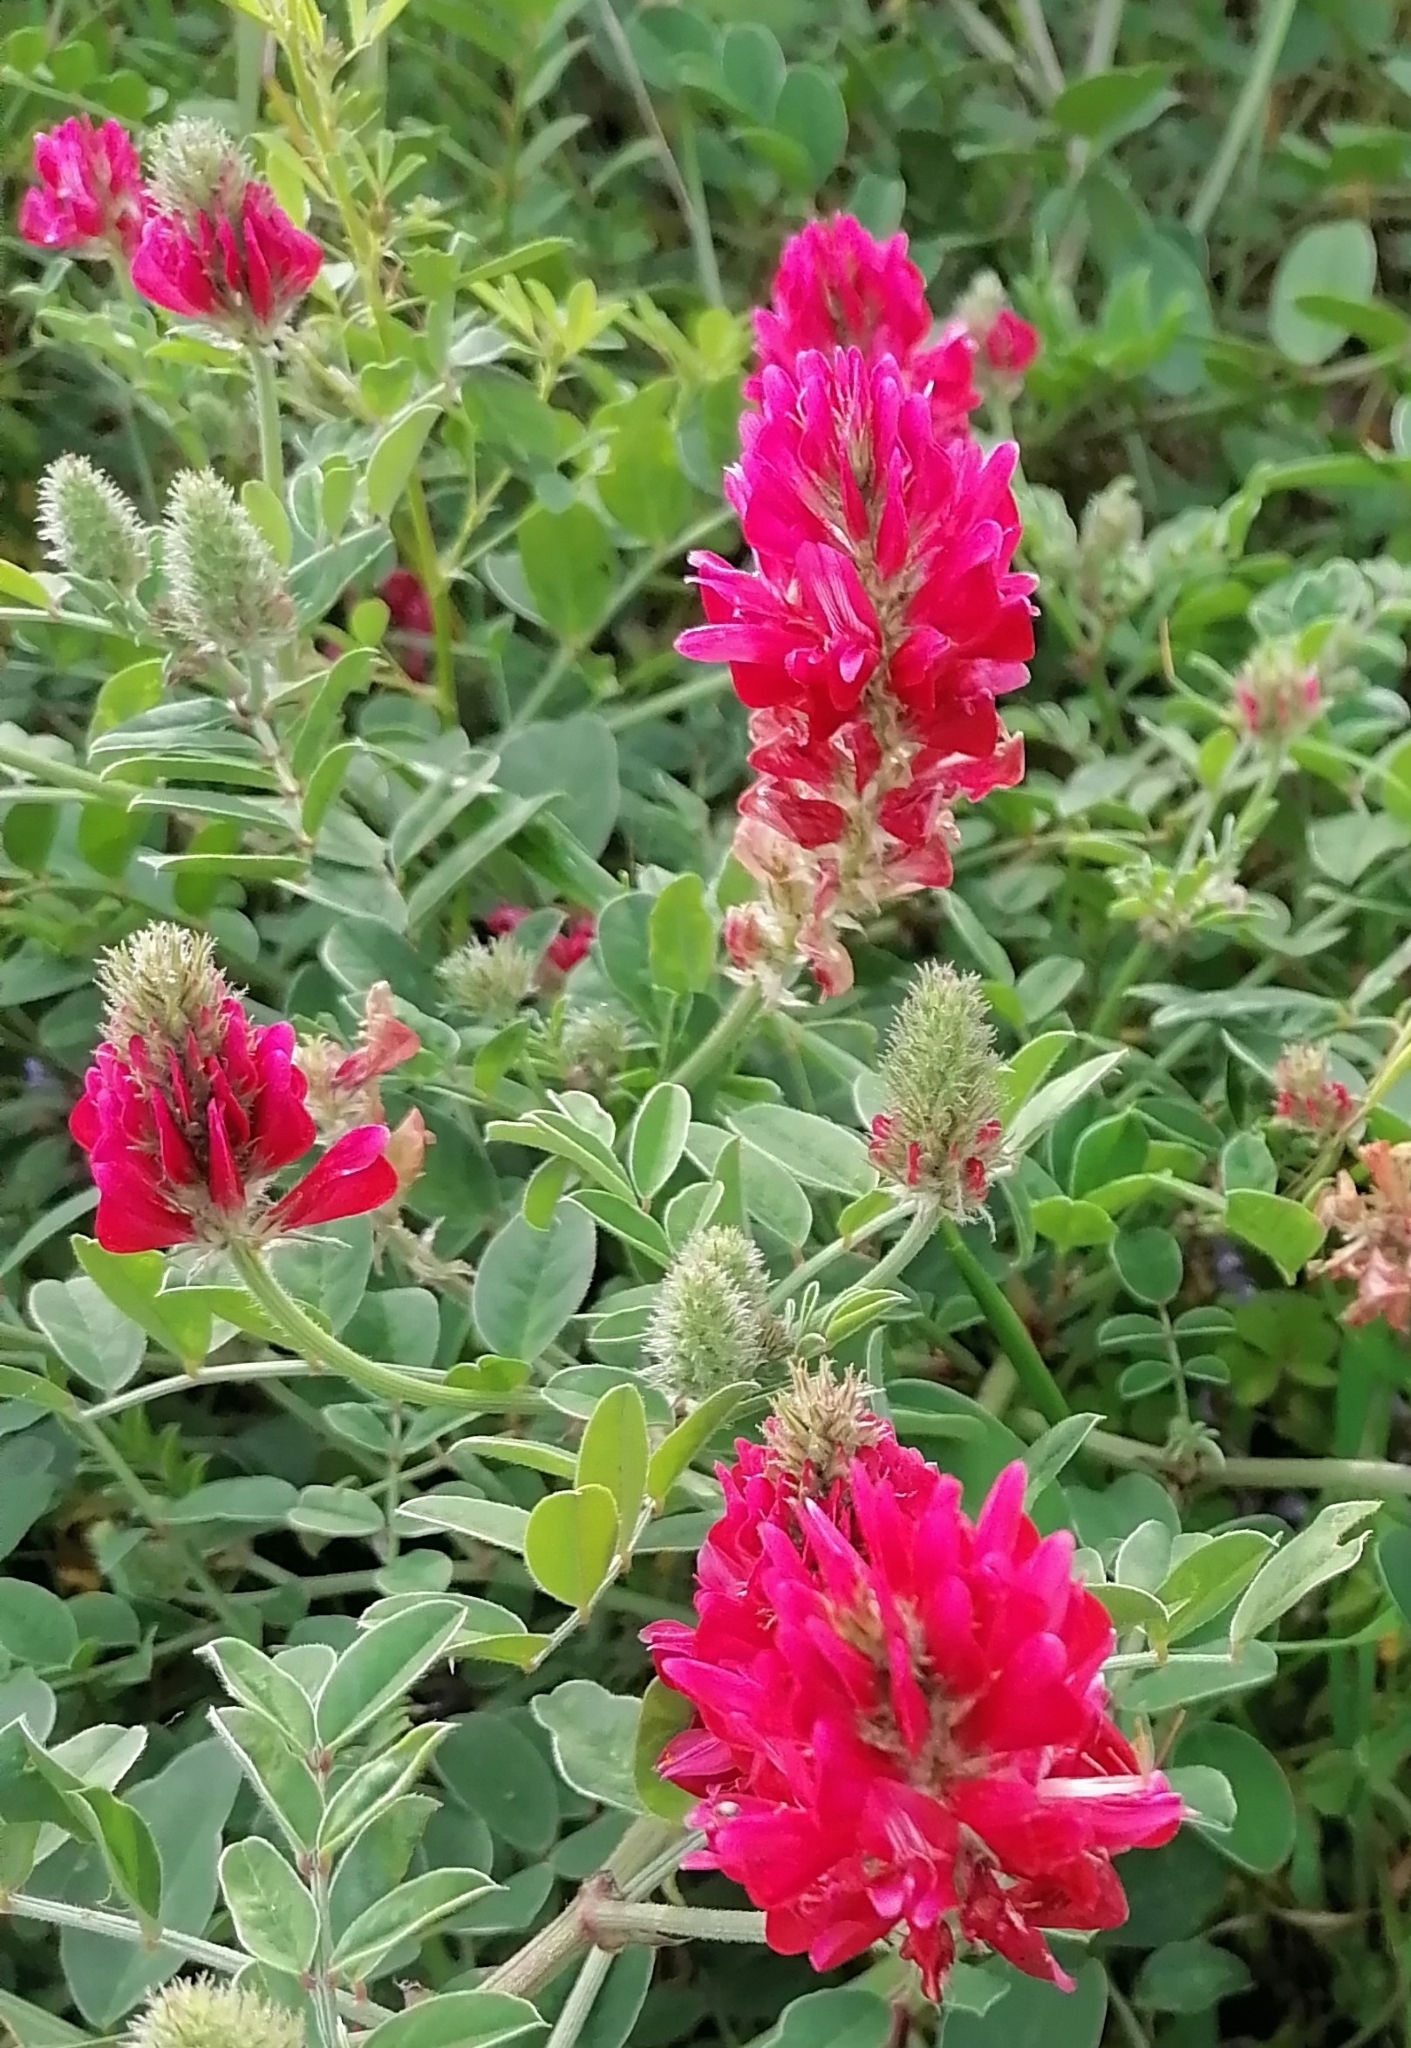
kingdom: Plantae
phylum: Tracheophyta
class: Magnoliopsida
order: Fabales
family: Fabaceae
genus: Sulla
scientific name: Sulla coronaria
